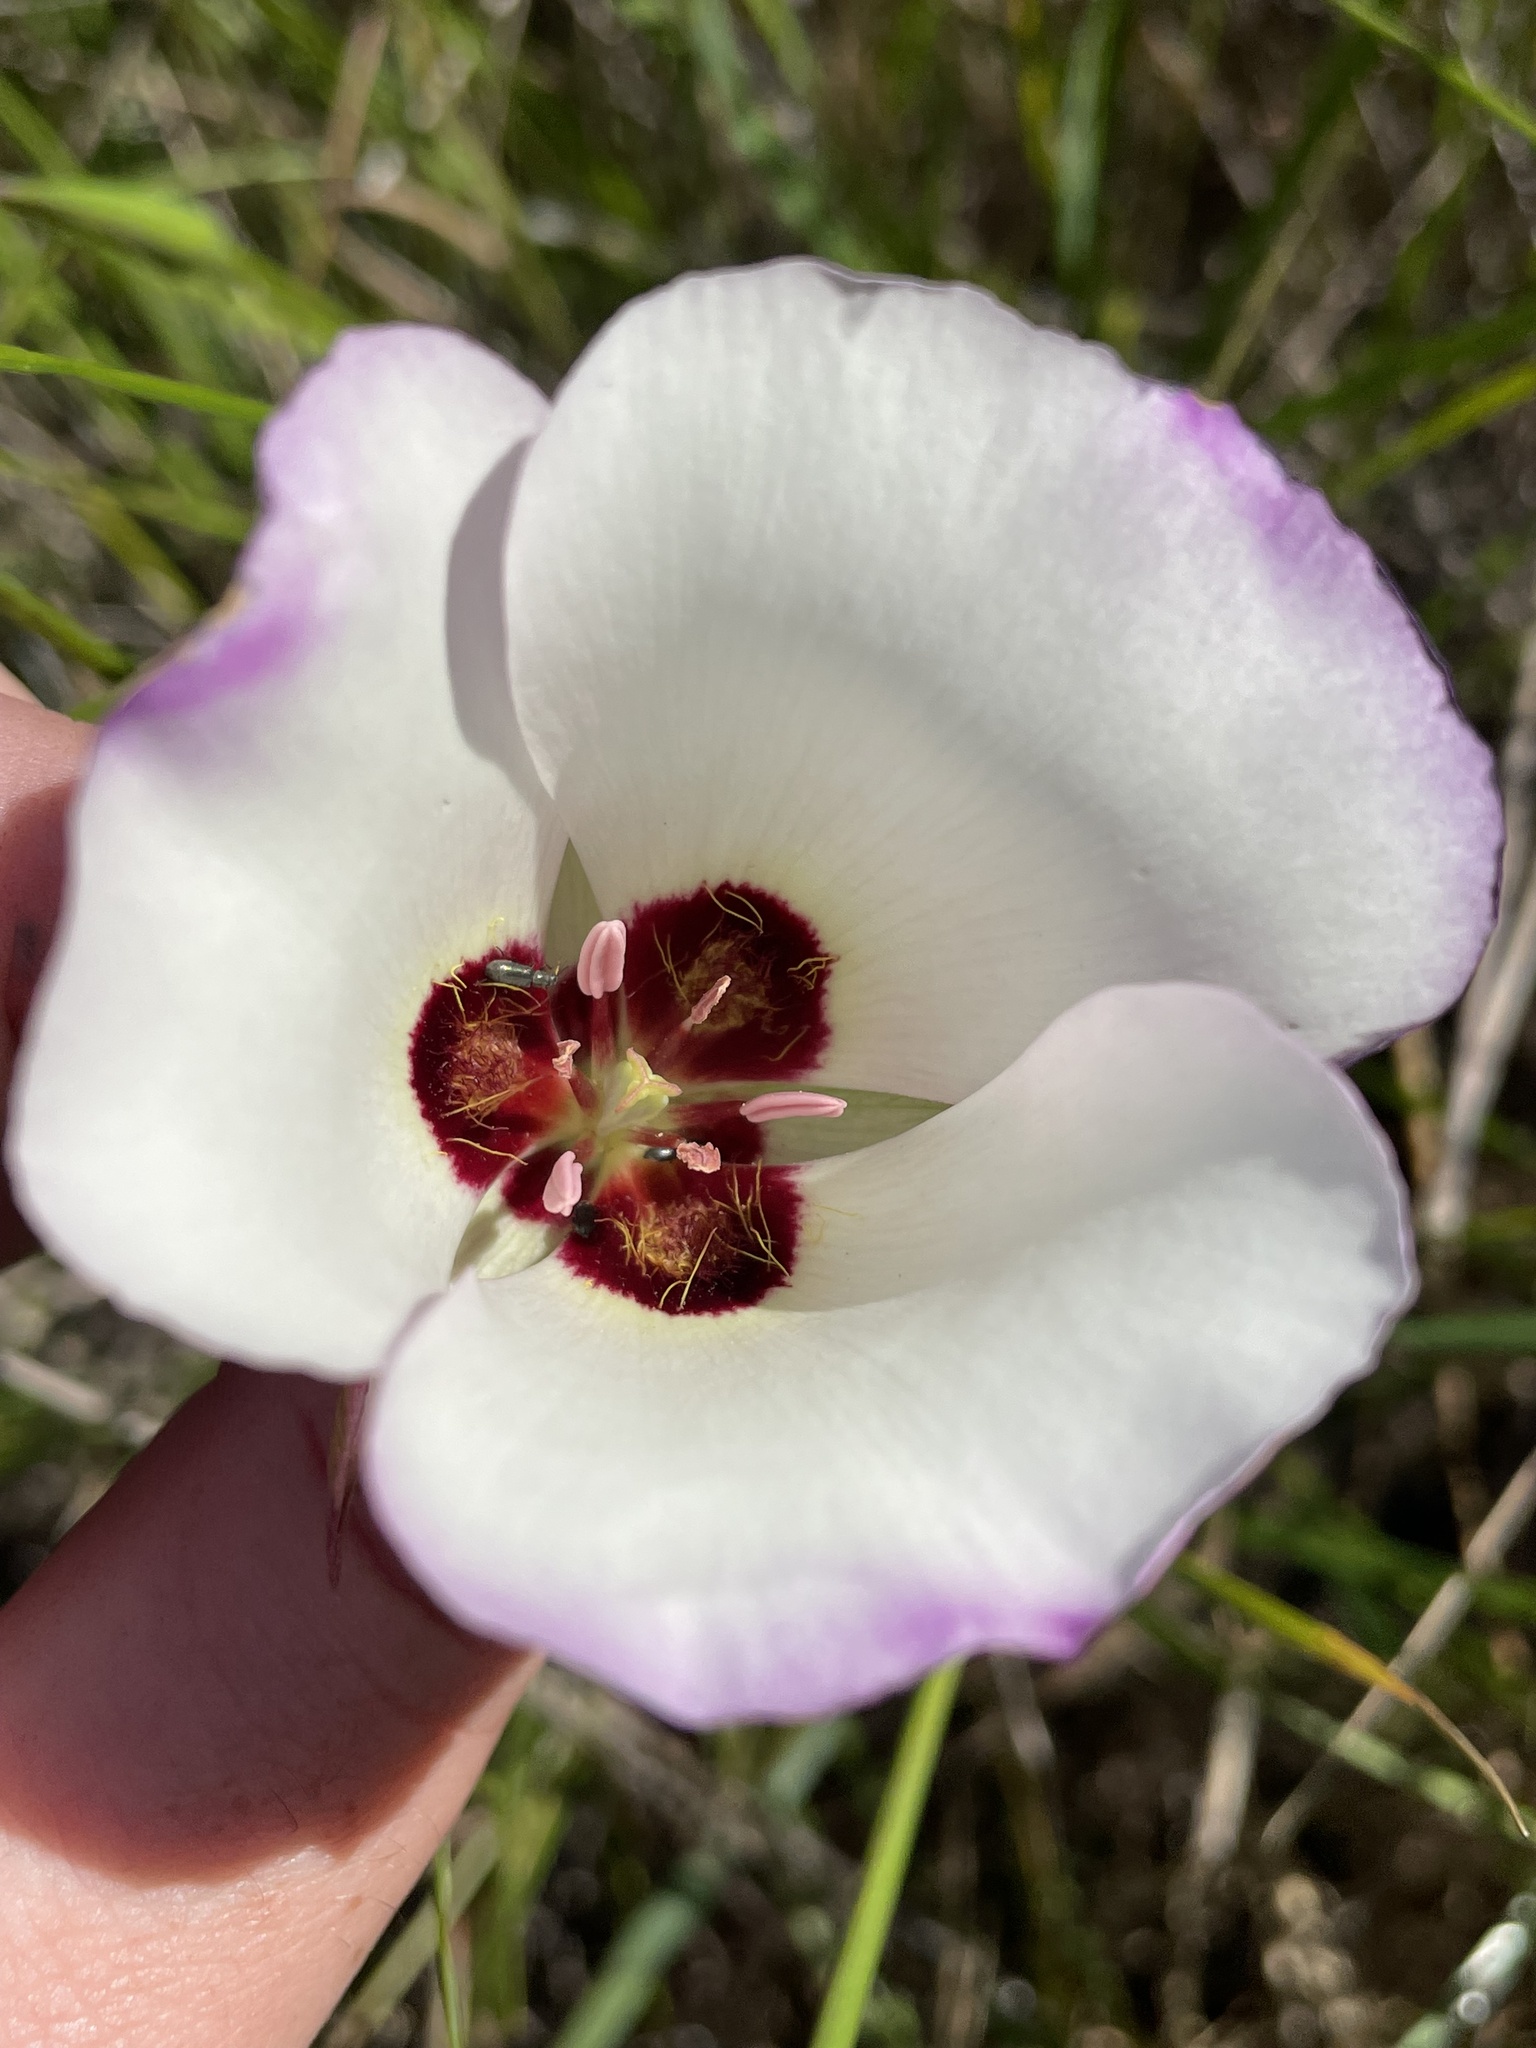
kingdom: Plantae
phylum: Tracheophyta
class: Liliopsida
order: Liliales
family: Liliaceae
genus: Calochortus
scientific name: Calochortus catalinae
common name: Catalina mariposa-lily
